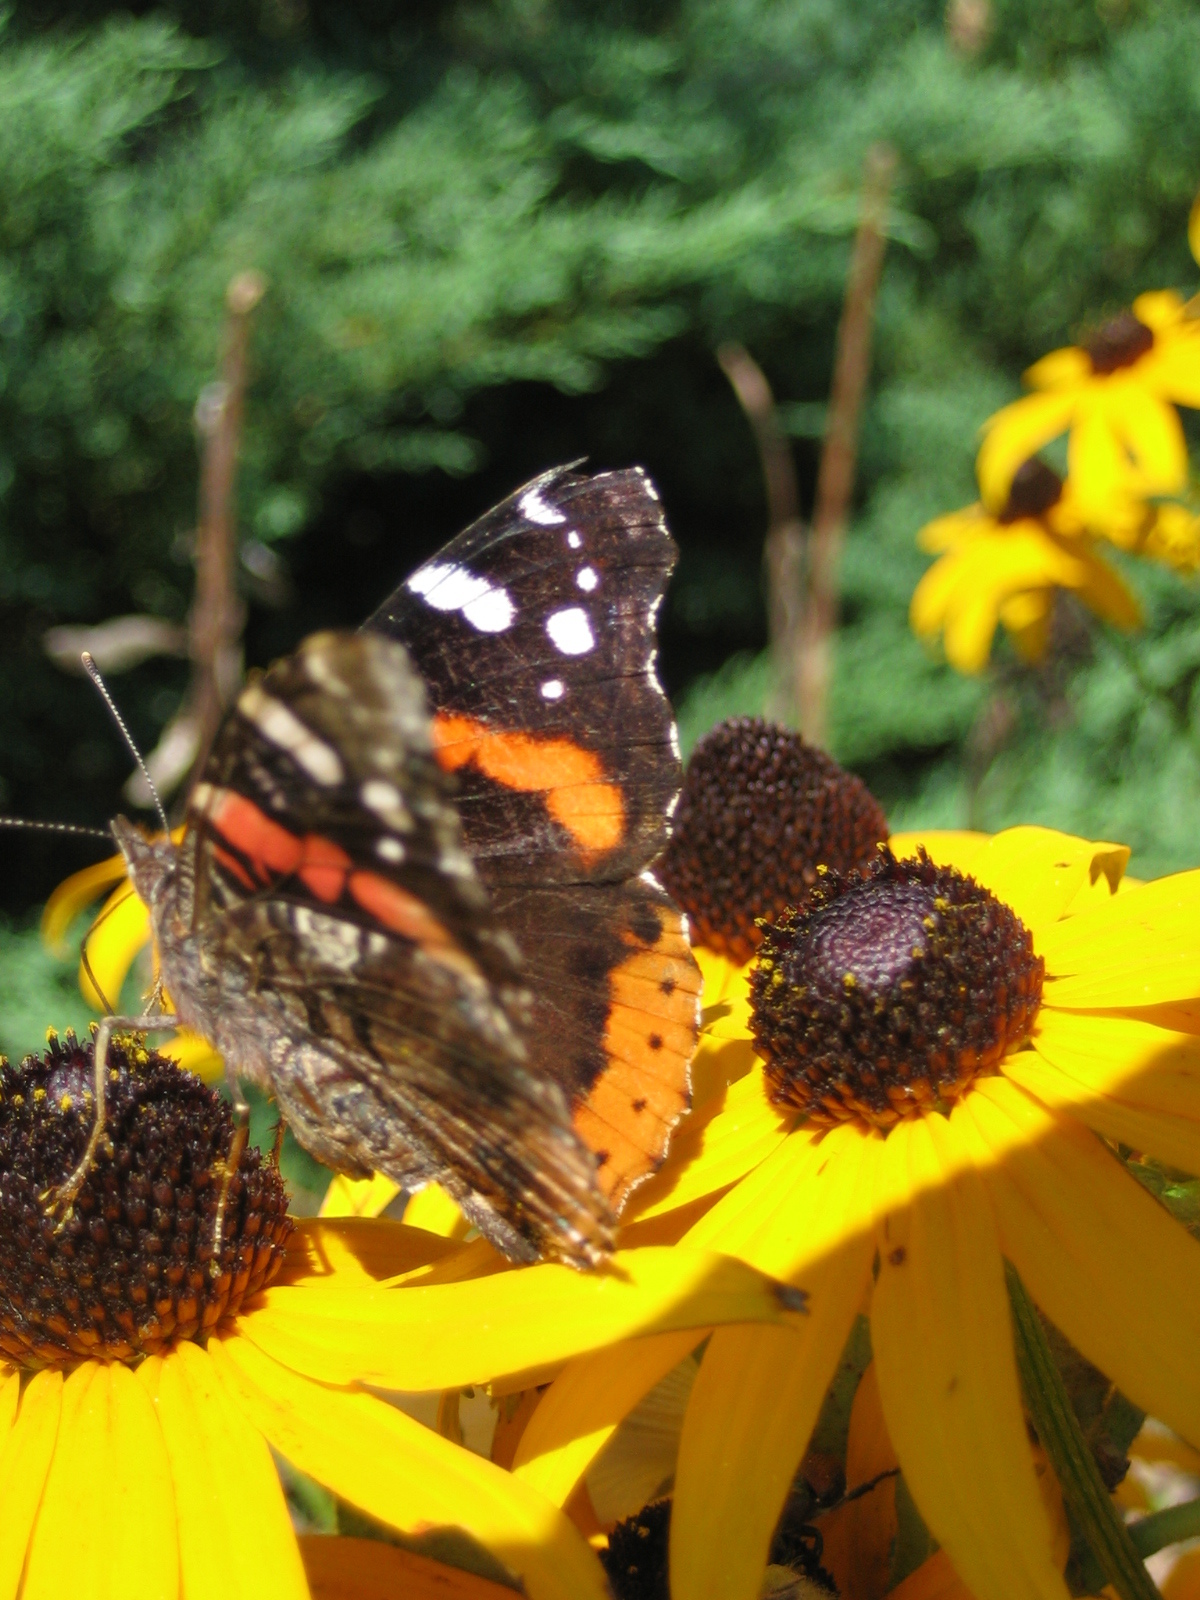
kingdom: Animalia
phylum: Arthropoda
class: Insecta
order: Lepidoptera
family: Nymphalidae
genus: Vanessa
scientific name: Vanessa atalanta
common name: Red admiral
